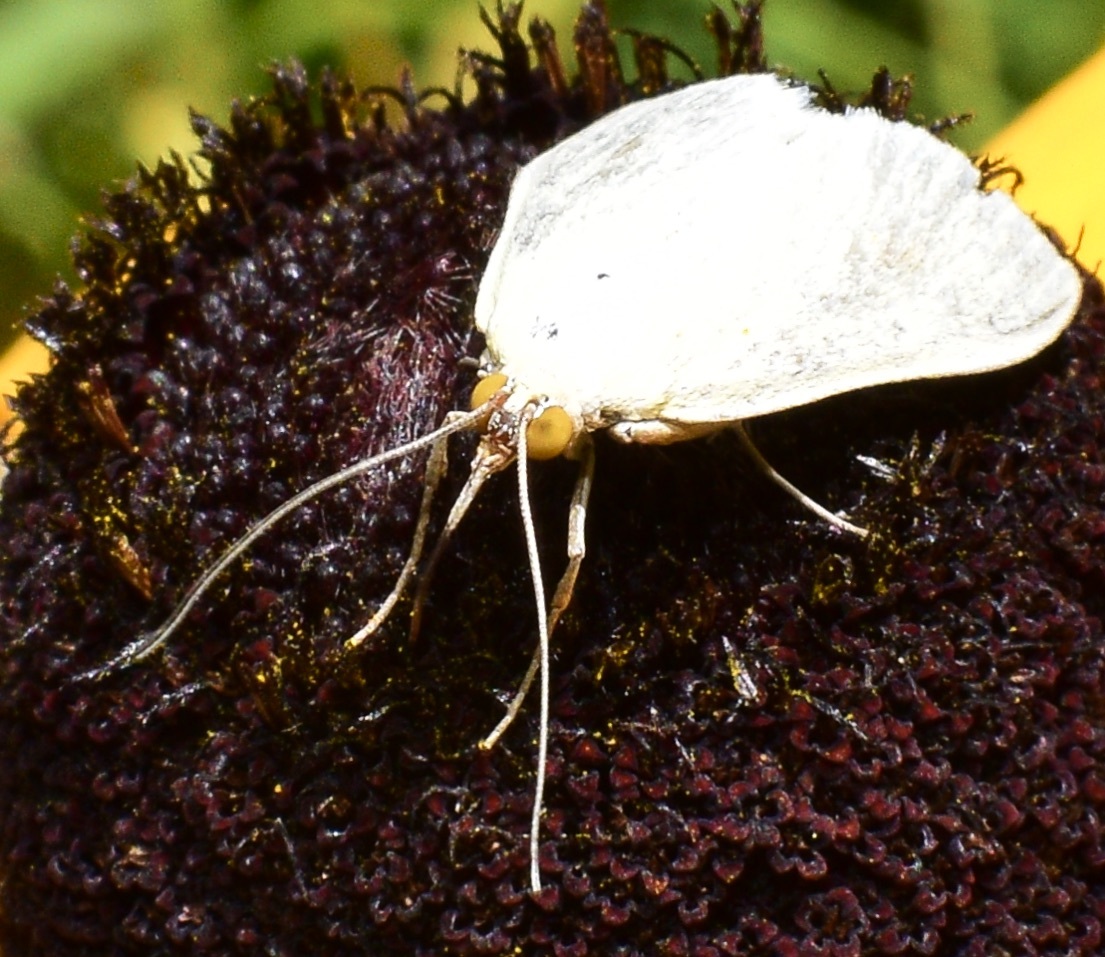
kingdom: Animalia
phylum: Arthropoda
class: Insecta
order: Lepidoptera
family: Crambidae
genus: Sitochroa
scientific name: Sitochroa palealis
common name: Greenish-yellow sitochroa moth
